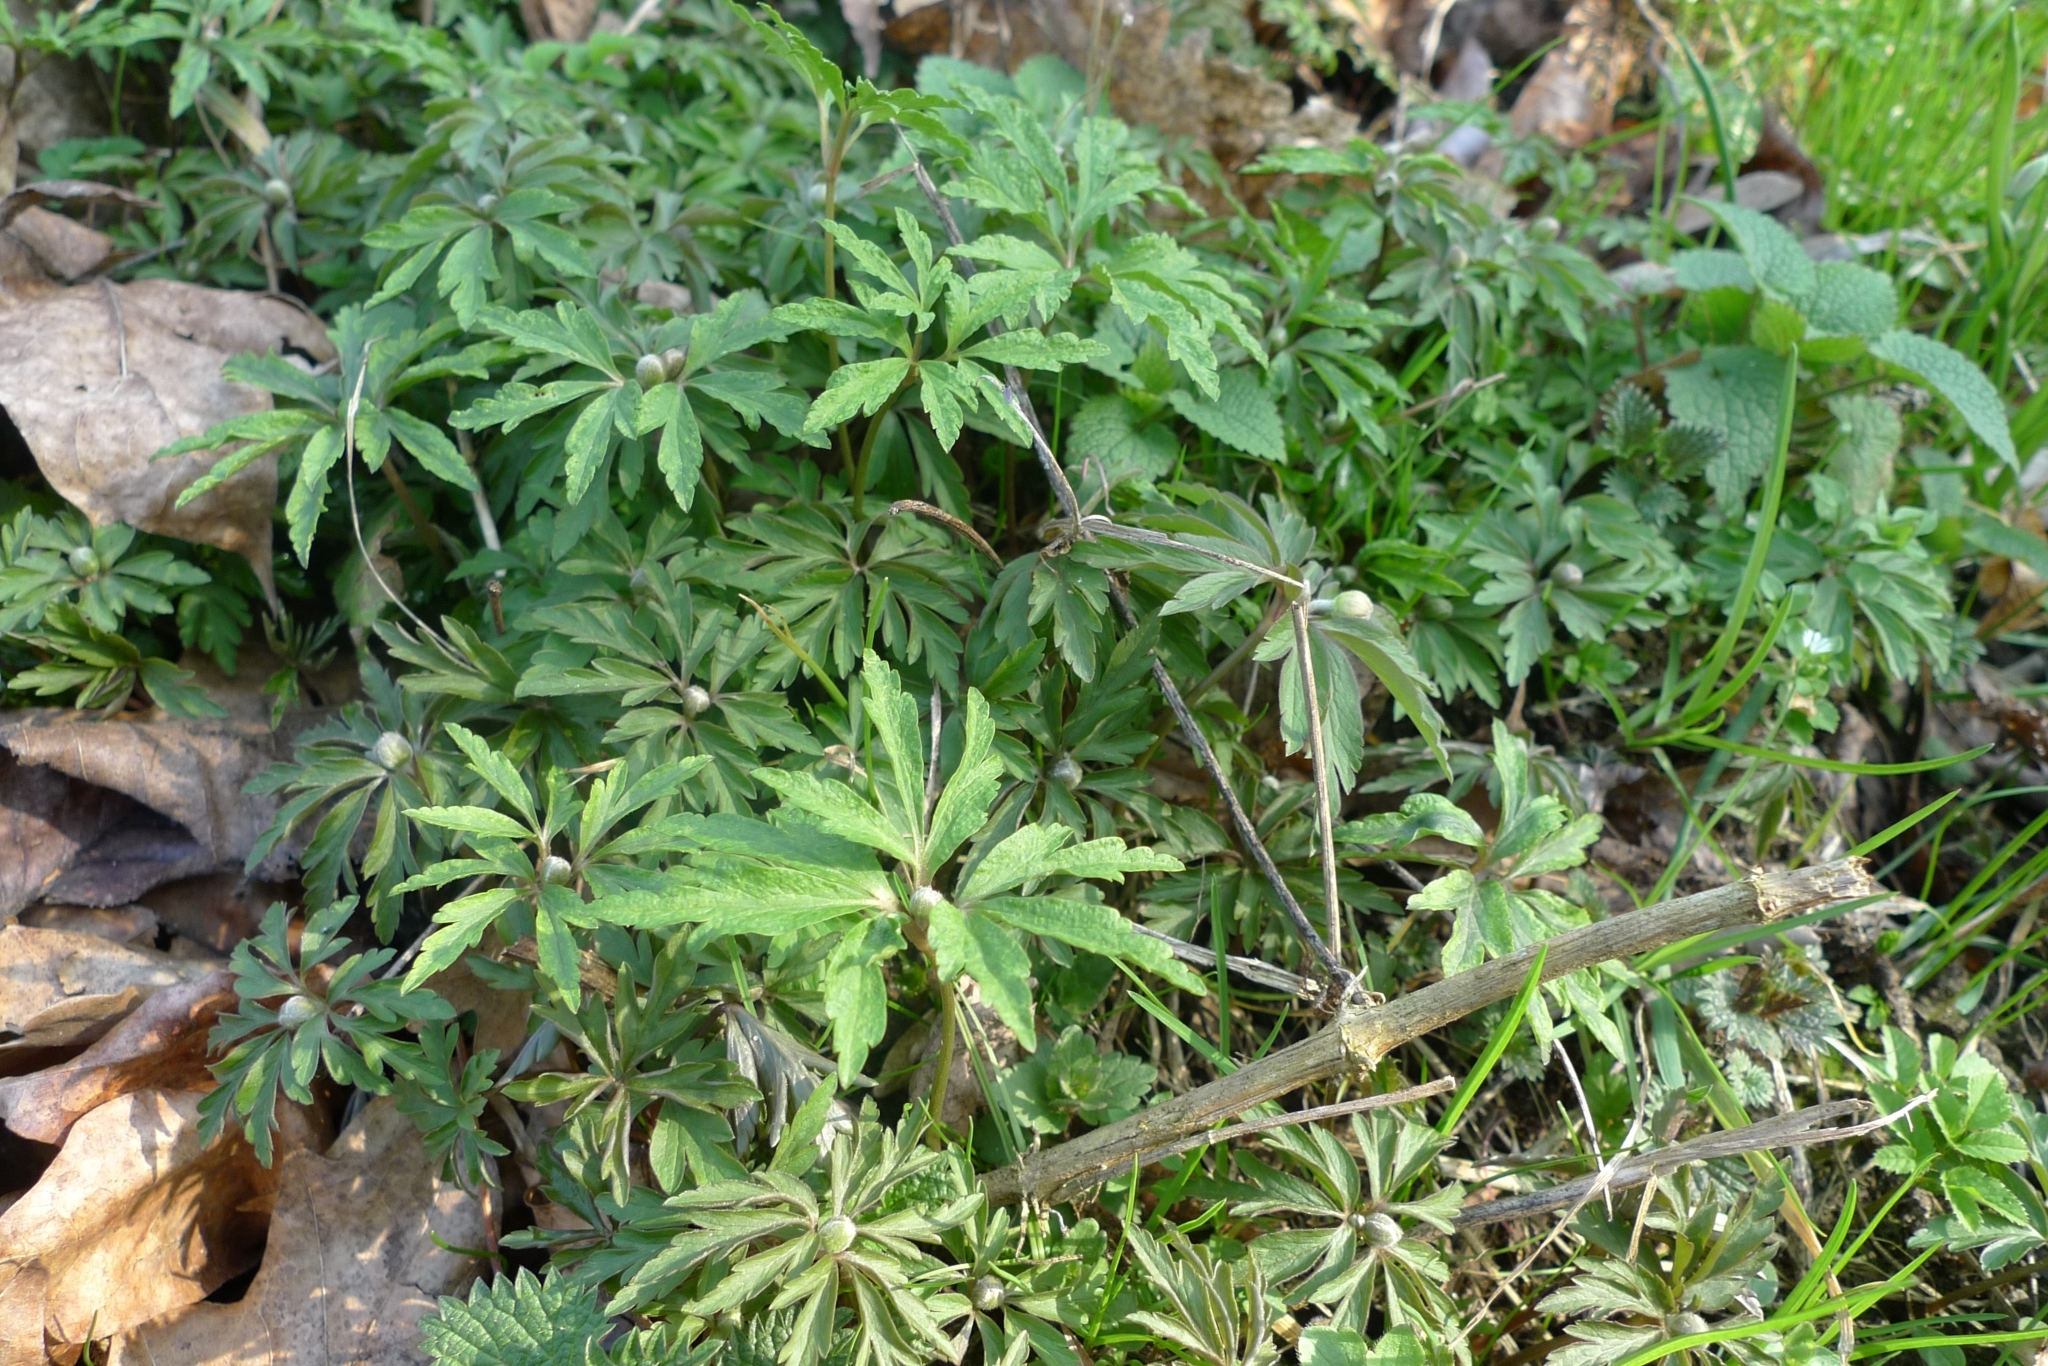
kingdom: Plantae
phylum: Tracheophyta
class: Magnoliopsida
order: Ranunculales
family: Ranunculaceae
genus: Anemone
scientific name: Anemone ranunculoides
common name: Yellow anemone
